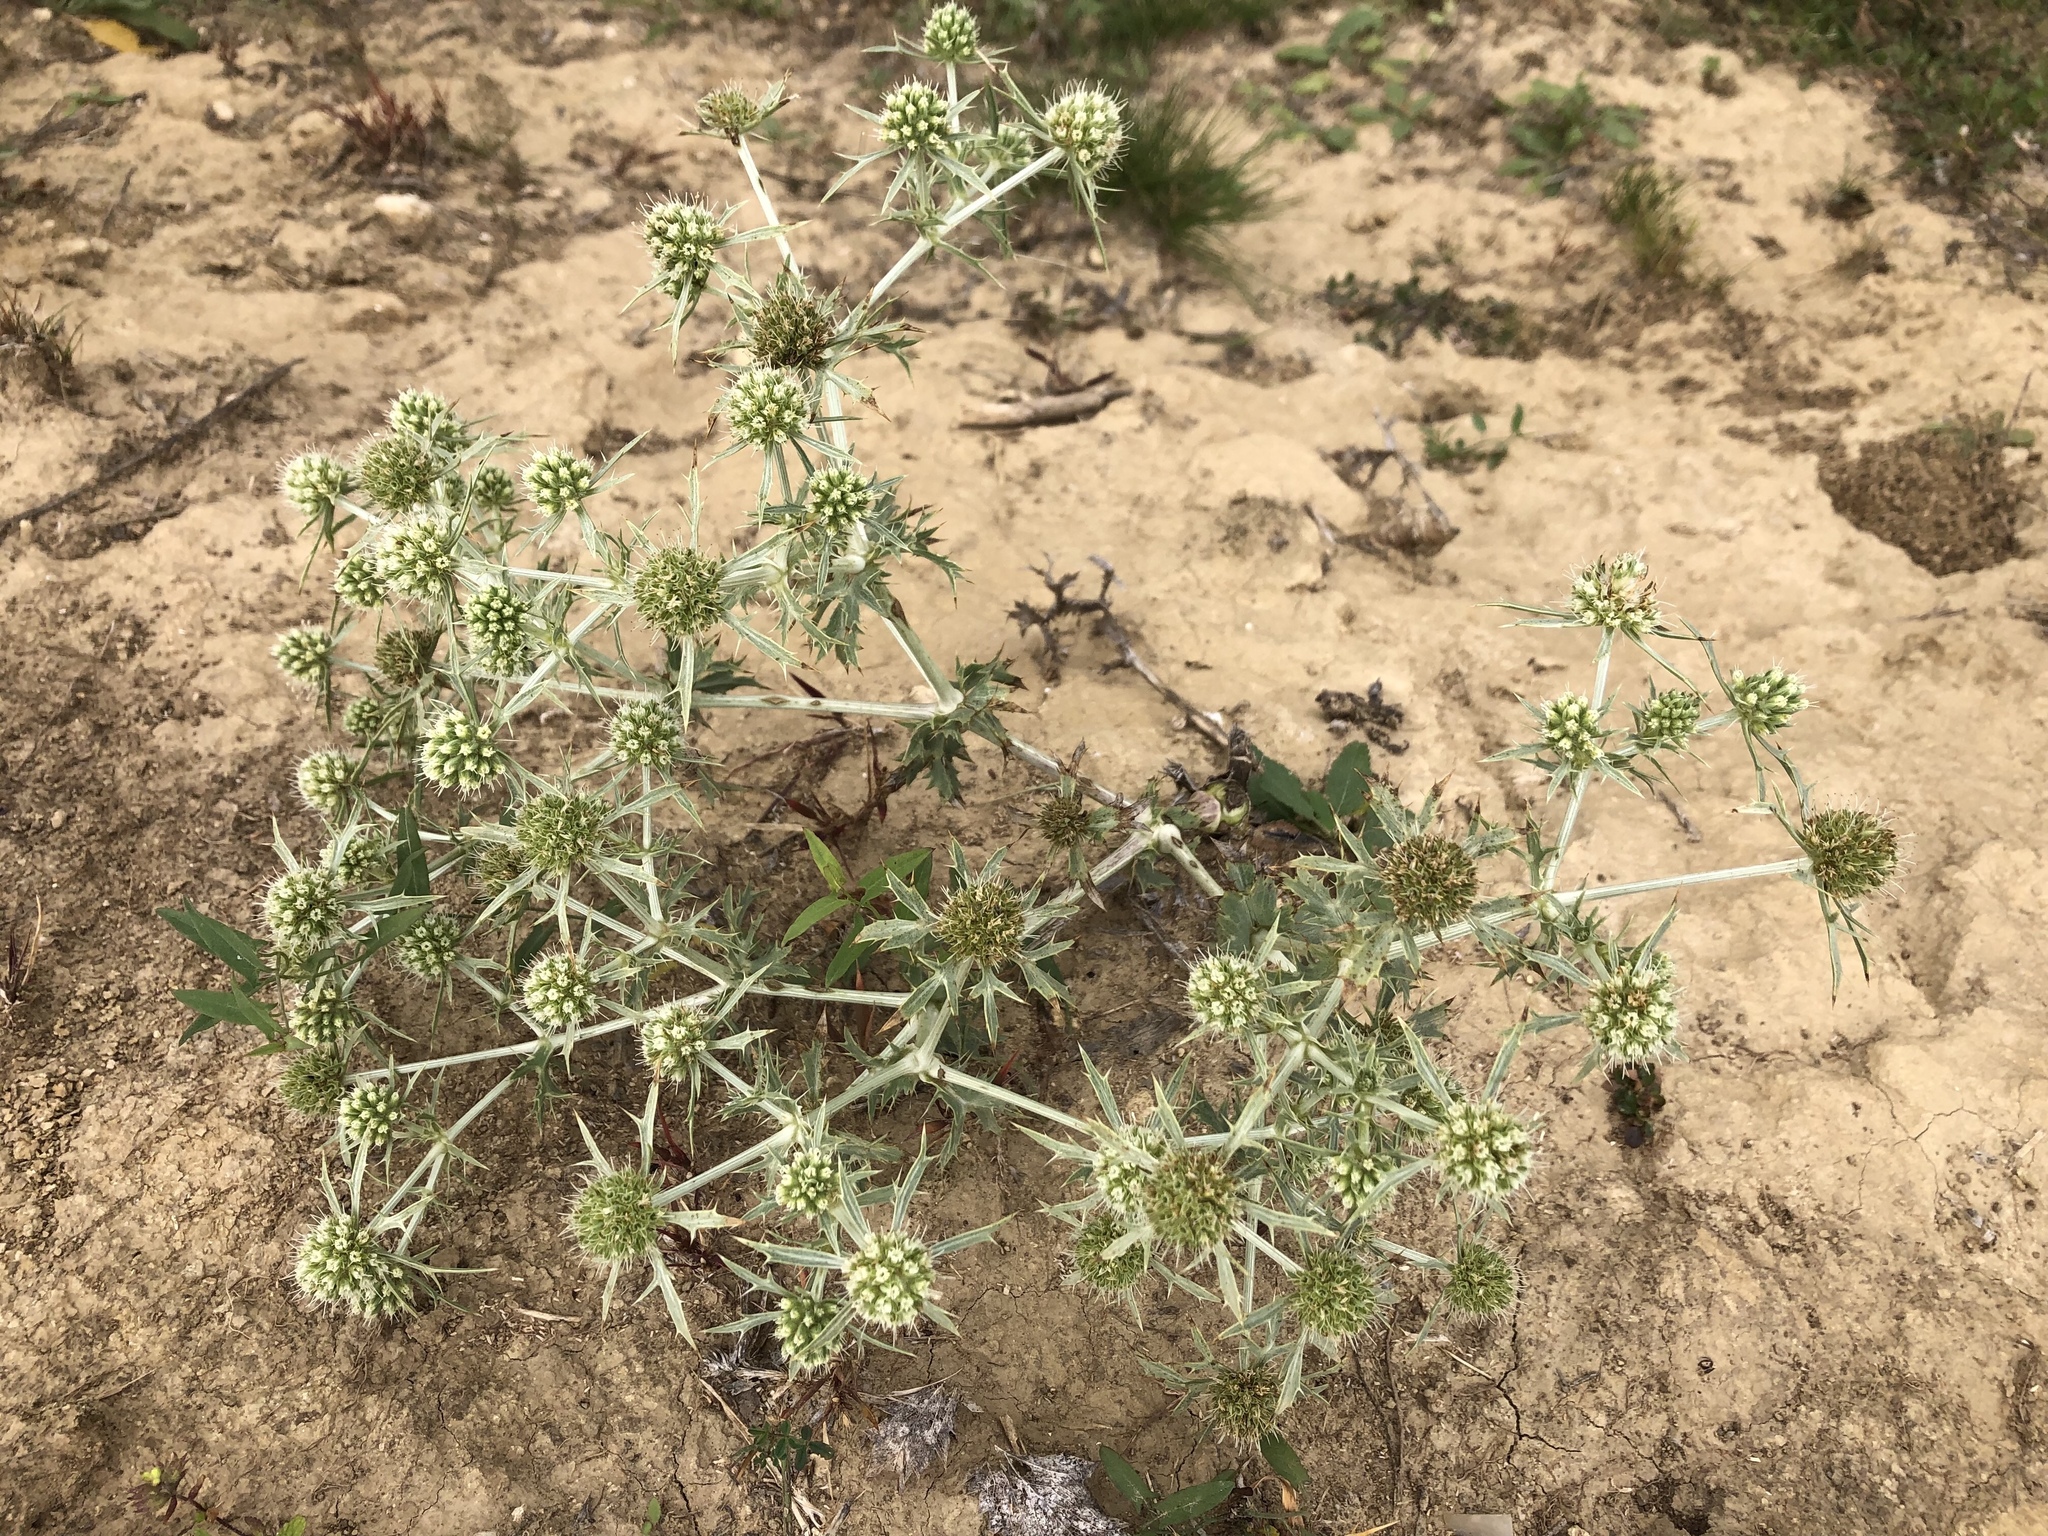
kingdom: Plantae
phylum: Tracheophyta
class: Magnoliopsida
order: Apiales
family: Apiaceae
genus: Eryngium
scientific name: Eryngium campestre
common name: Field eryngo
